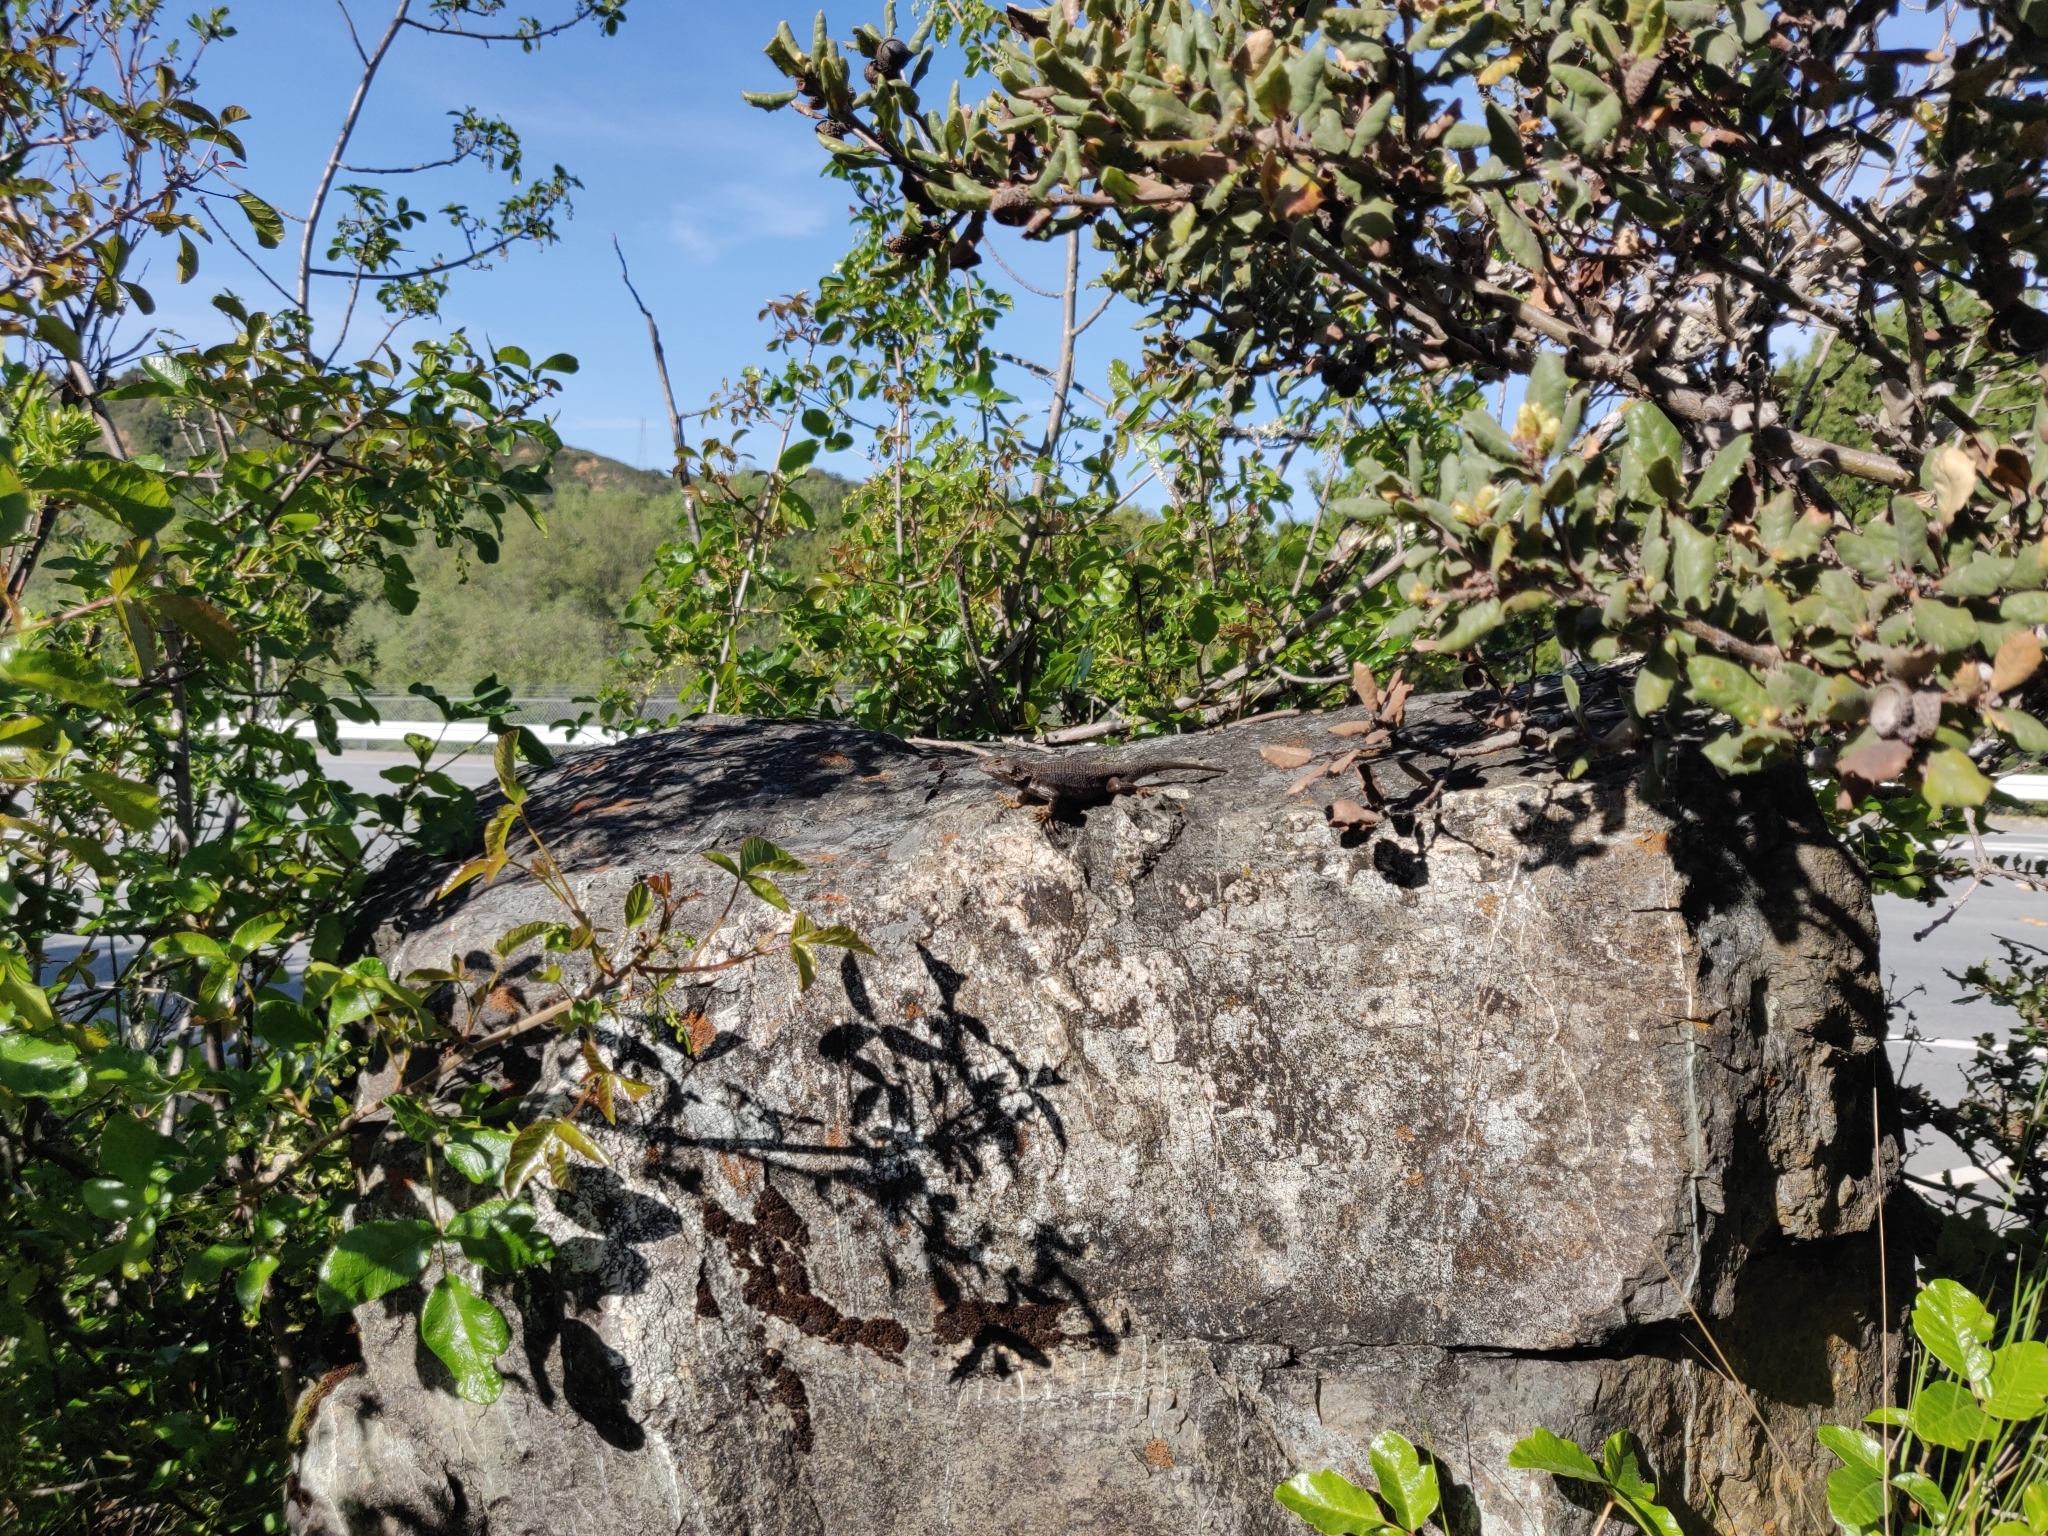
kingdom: Animalia
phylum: Chordata
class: Squamata
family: Phrynosomatidae
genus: Sceloporus
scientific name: Sceloporus occidentalis
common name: Western fence lizard
